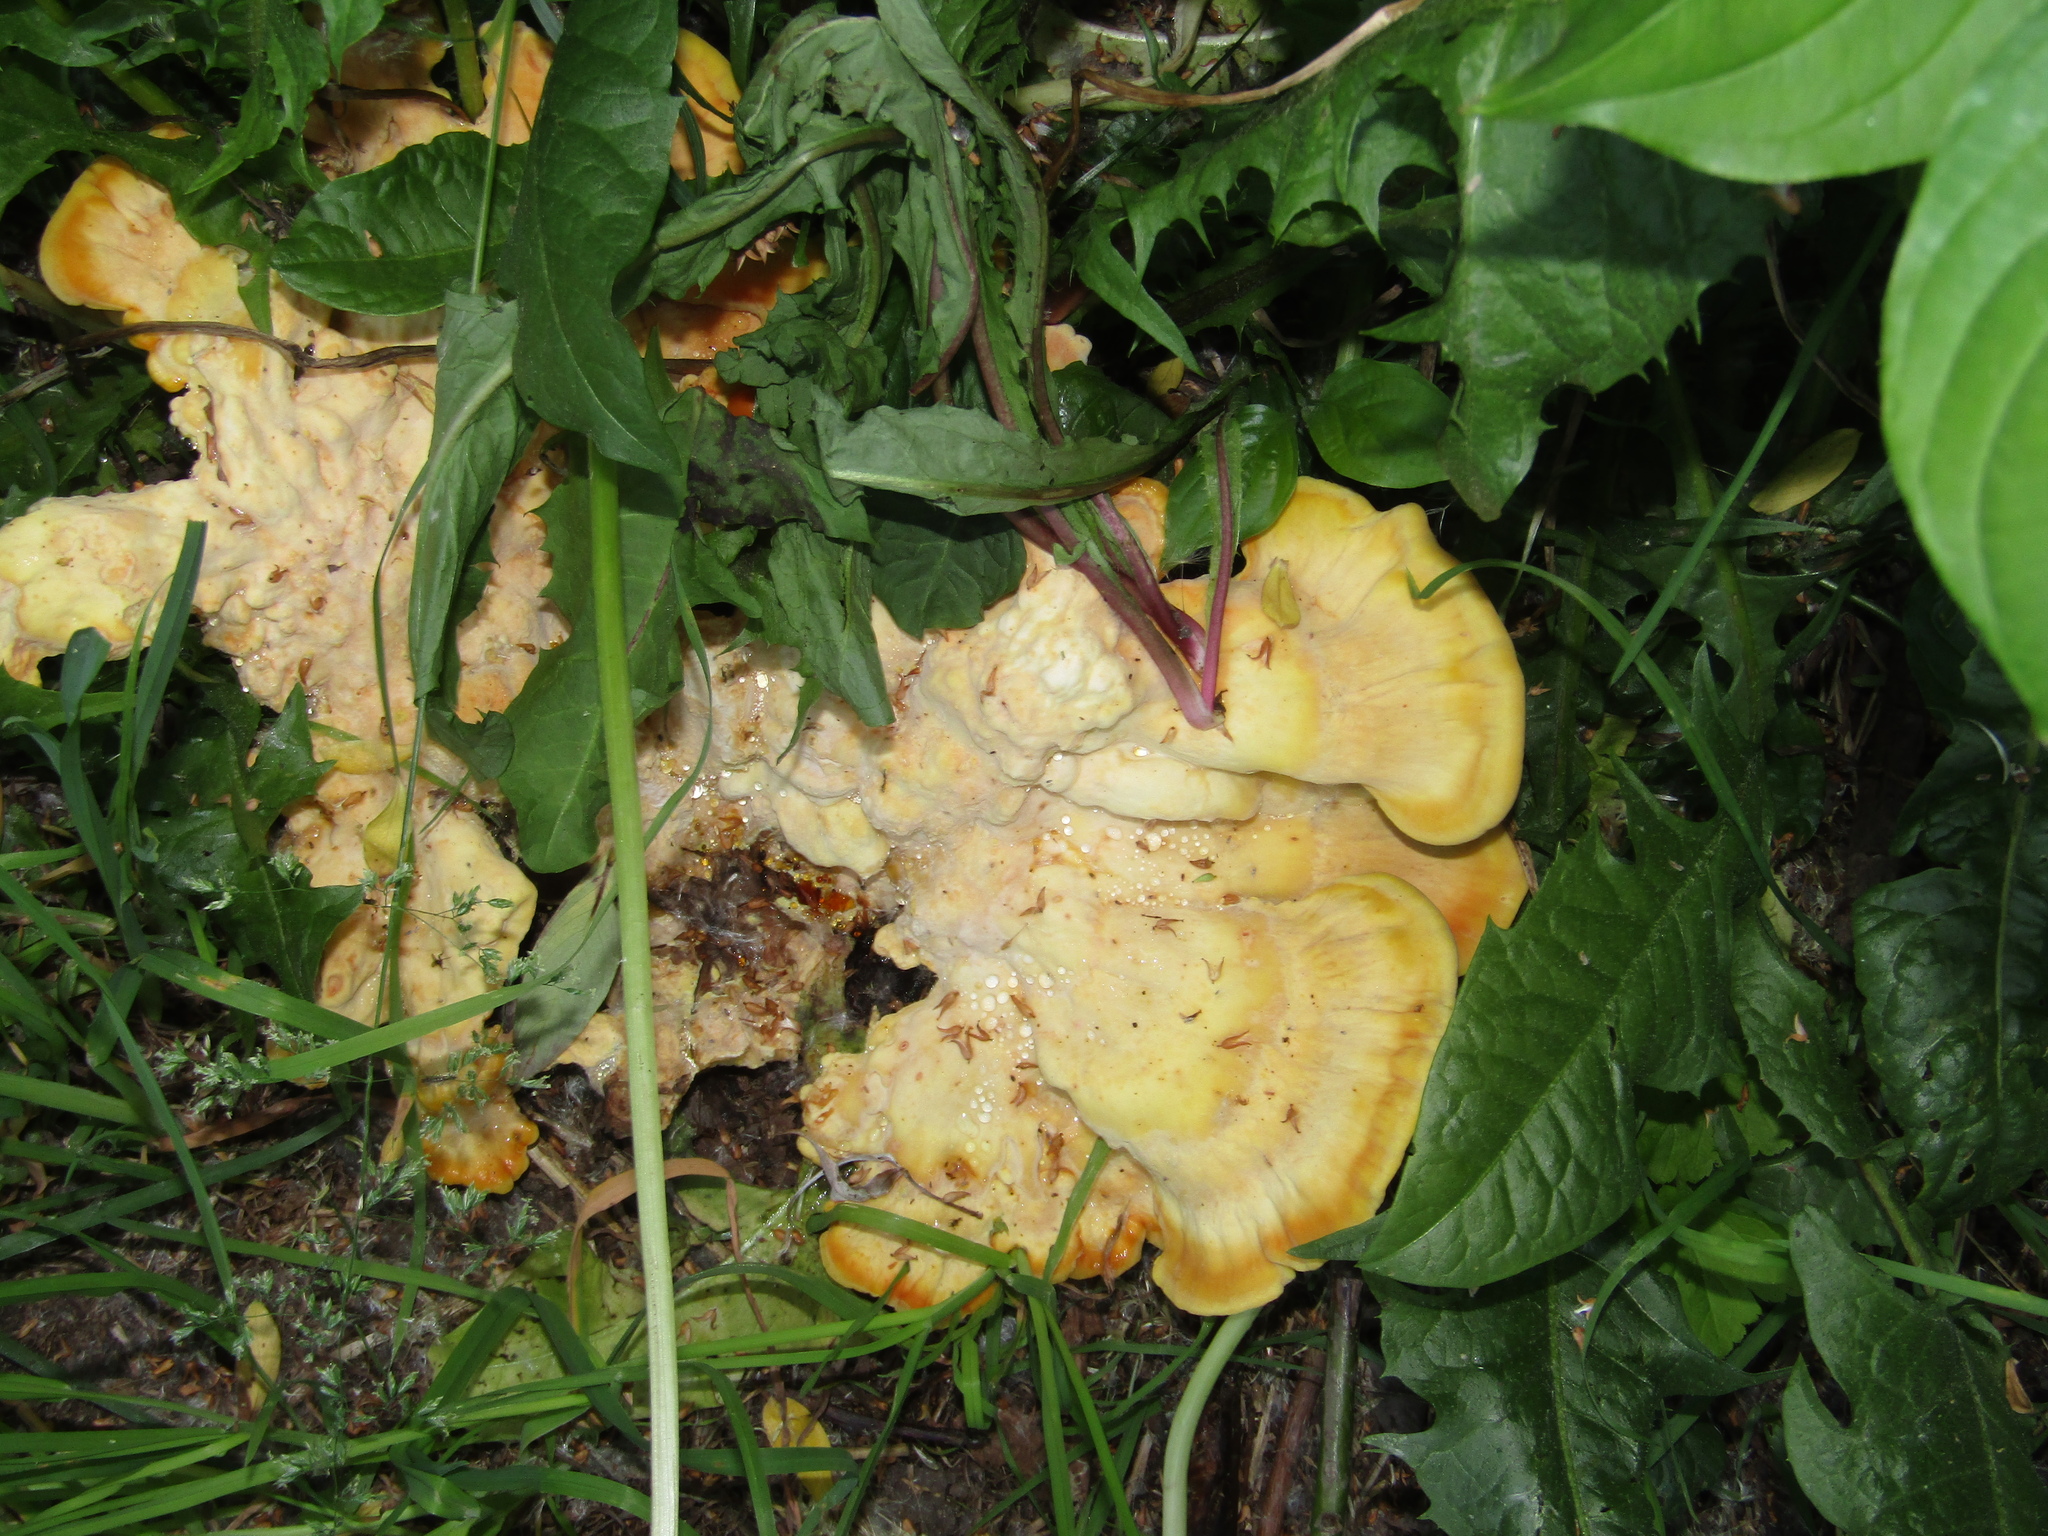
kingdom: Fungi
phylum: Basidiomycota
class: Agaricomycetes
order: Polyporales
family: Laetiporaceae
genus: Laetiporus
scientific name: Laetiporus sulphureus
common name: Chicken of the woods
